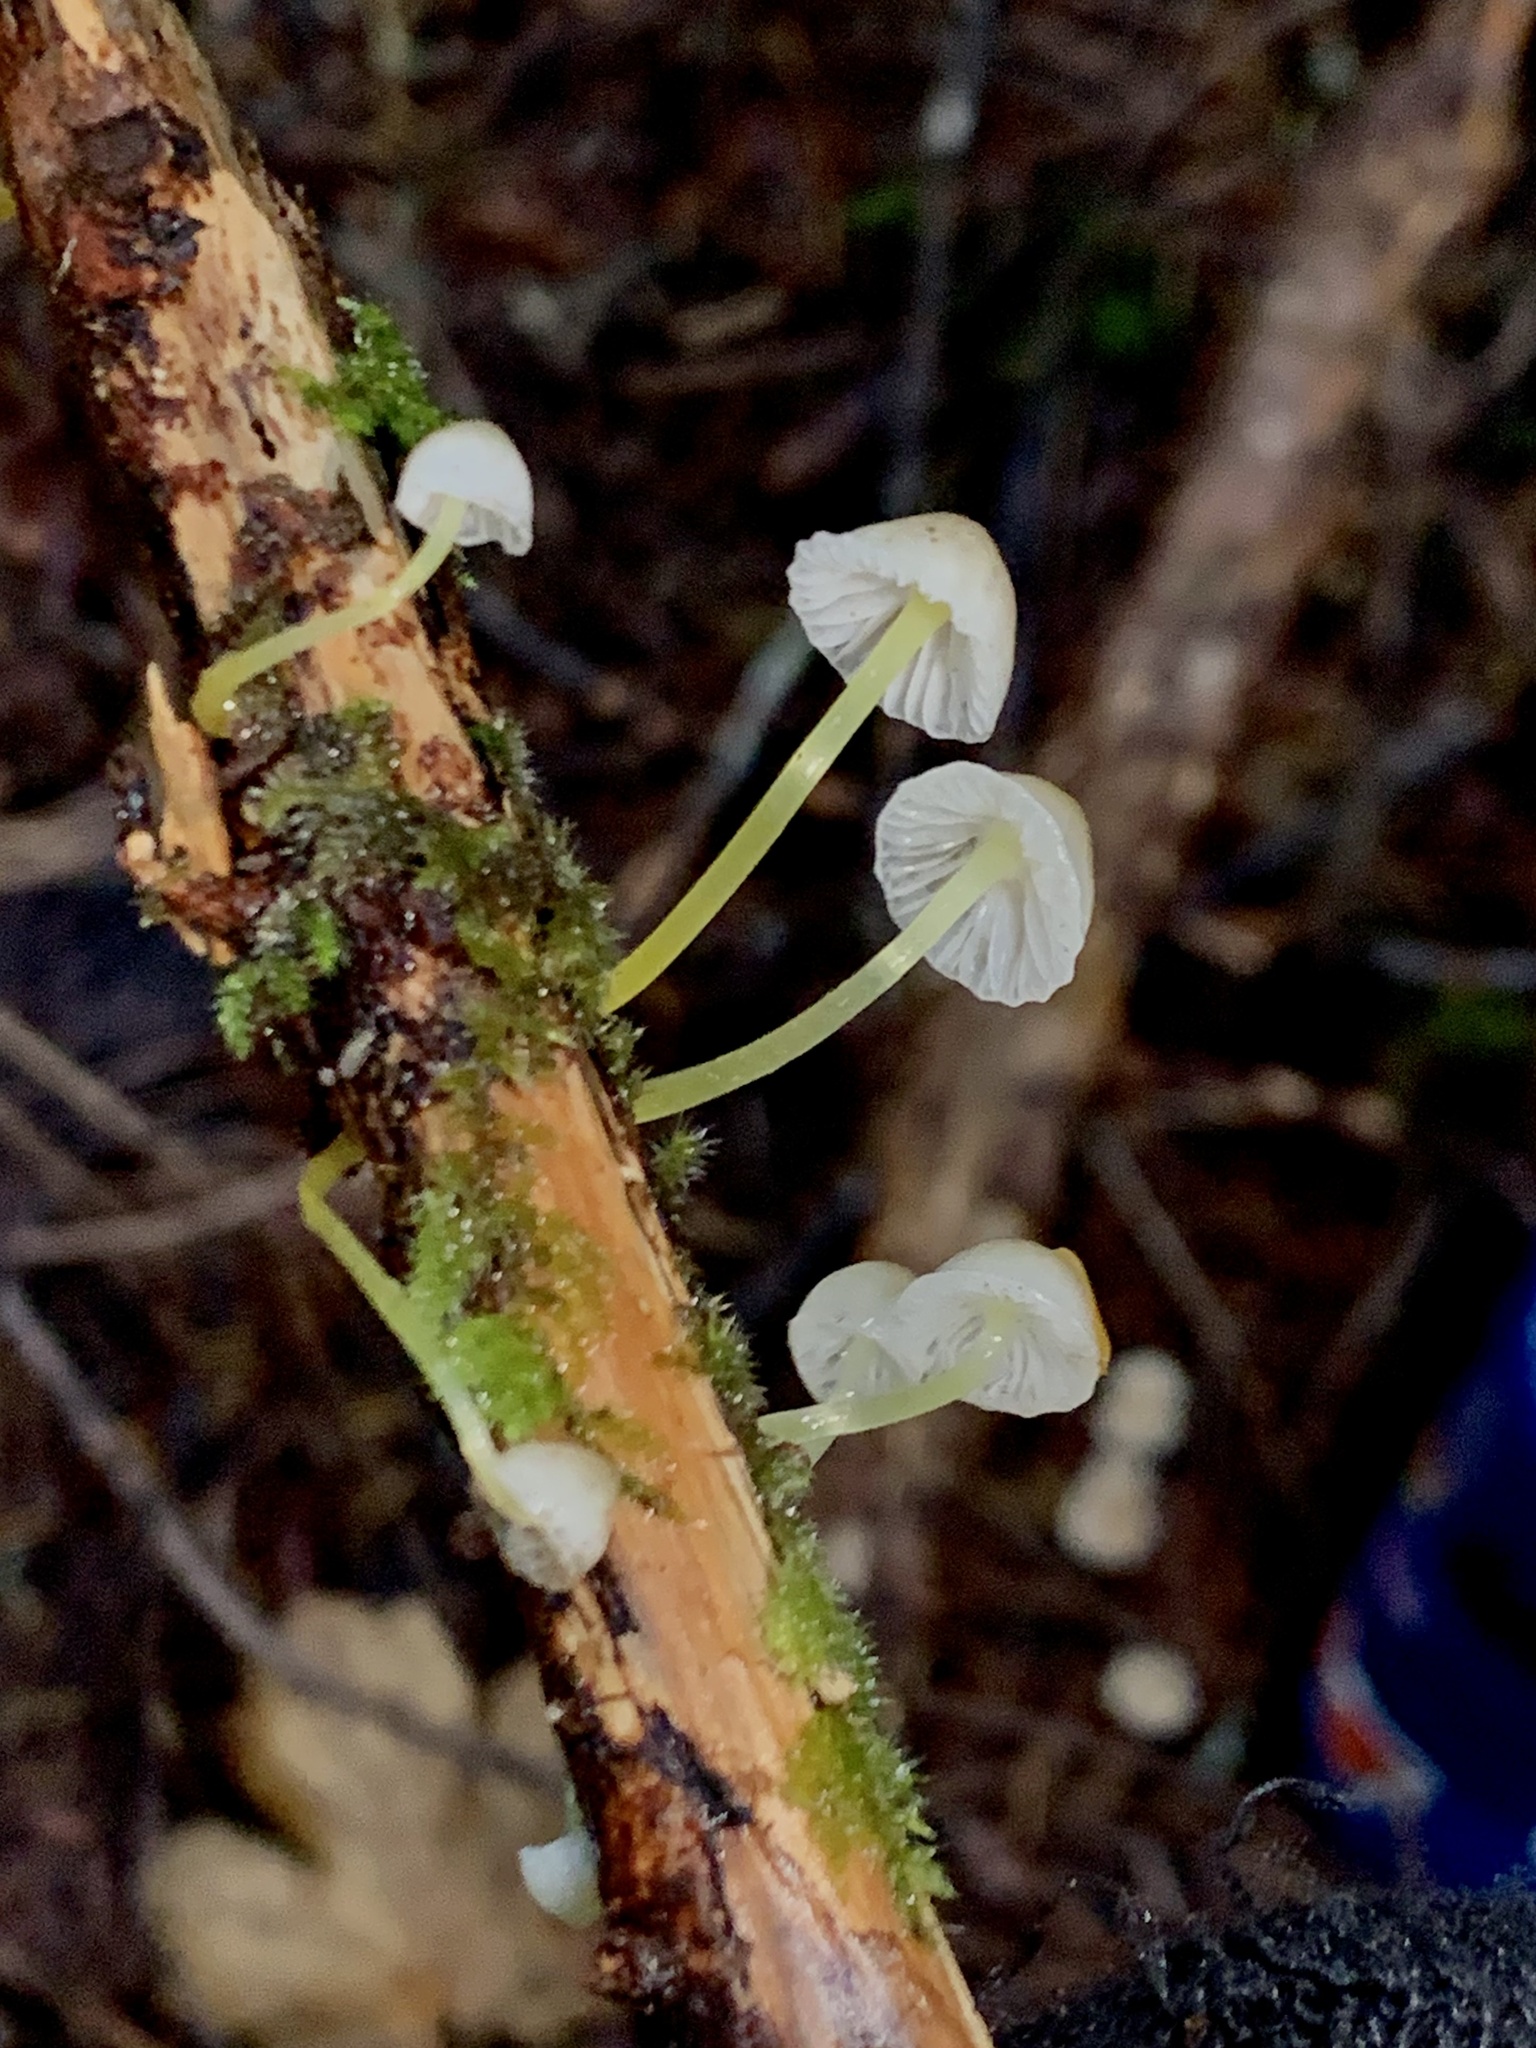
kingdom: Fungi
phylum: Basidiomycota
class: Agaricomycetes
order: Agaricales
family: Mycenaceae
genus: Mycena
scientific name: Mycena epipterygia
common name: Yellowleg bonnet
